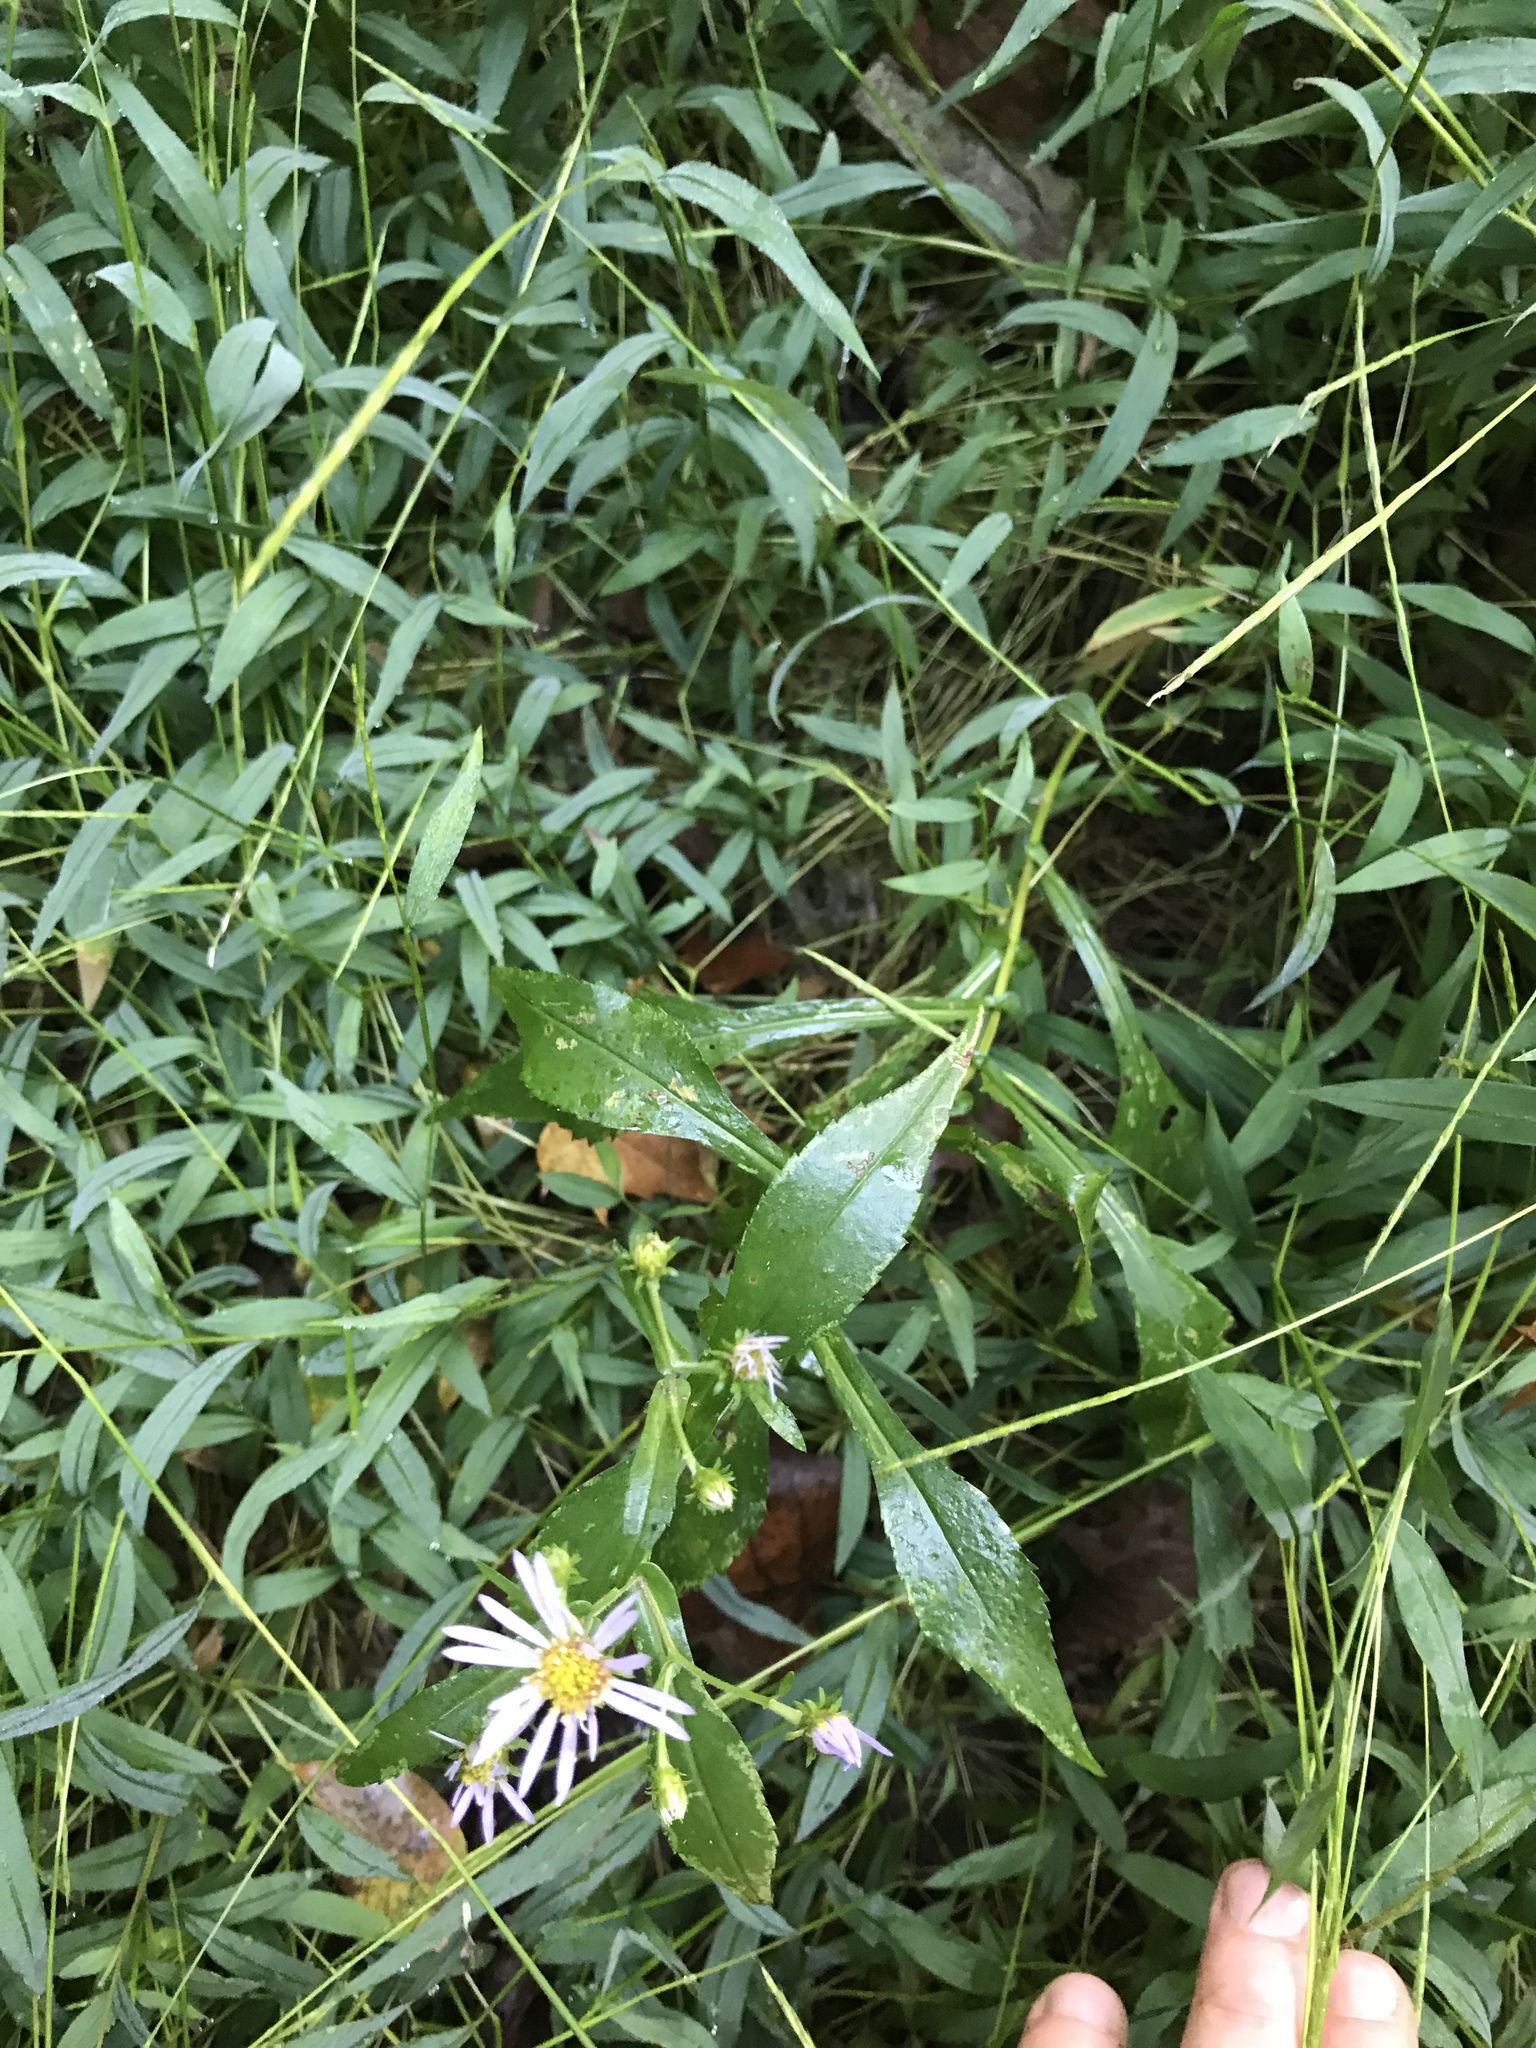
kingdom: Plantae
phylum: Tracheophyta
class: Magnoliopsida
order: Asterales
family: Asteraceae
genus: Symphyotrichum
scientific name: Symphyotrichum prenanthoides
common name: Crooked-stem aster
